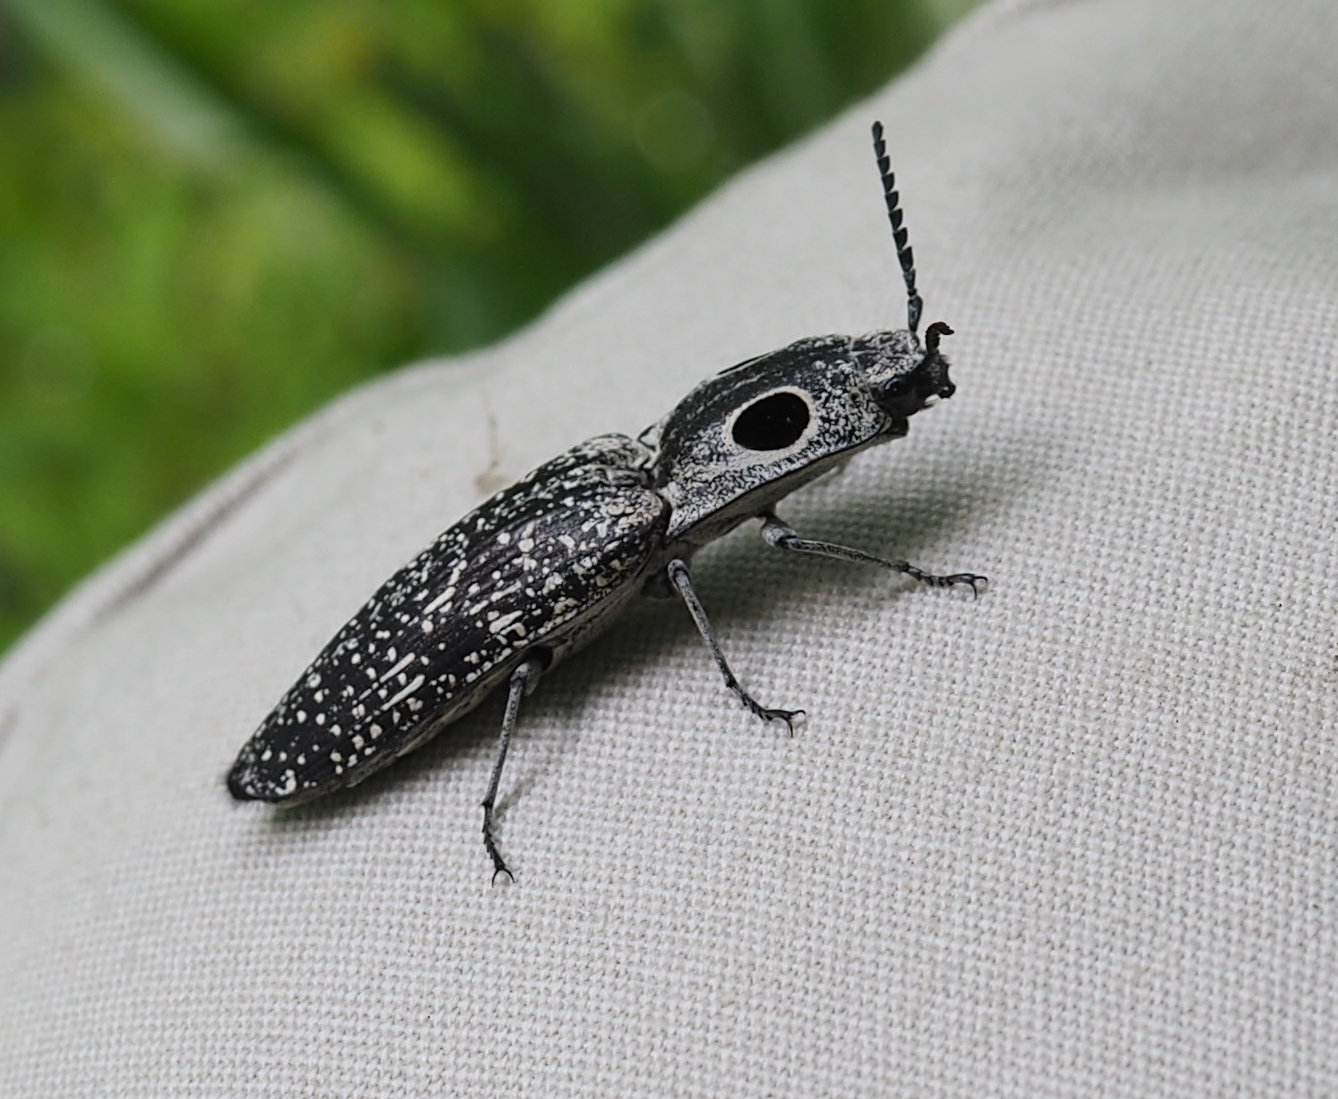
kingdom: Animalia
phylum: Arthropoda
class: Insecta
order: Coleoptera
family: Elateridae
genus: Alaus
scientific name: Alaus oculatus
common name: Eastern eyed click beetle
